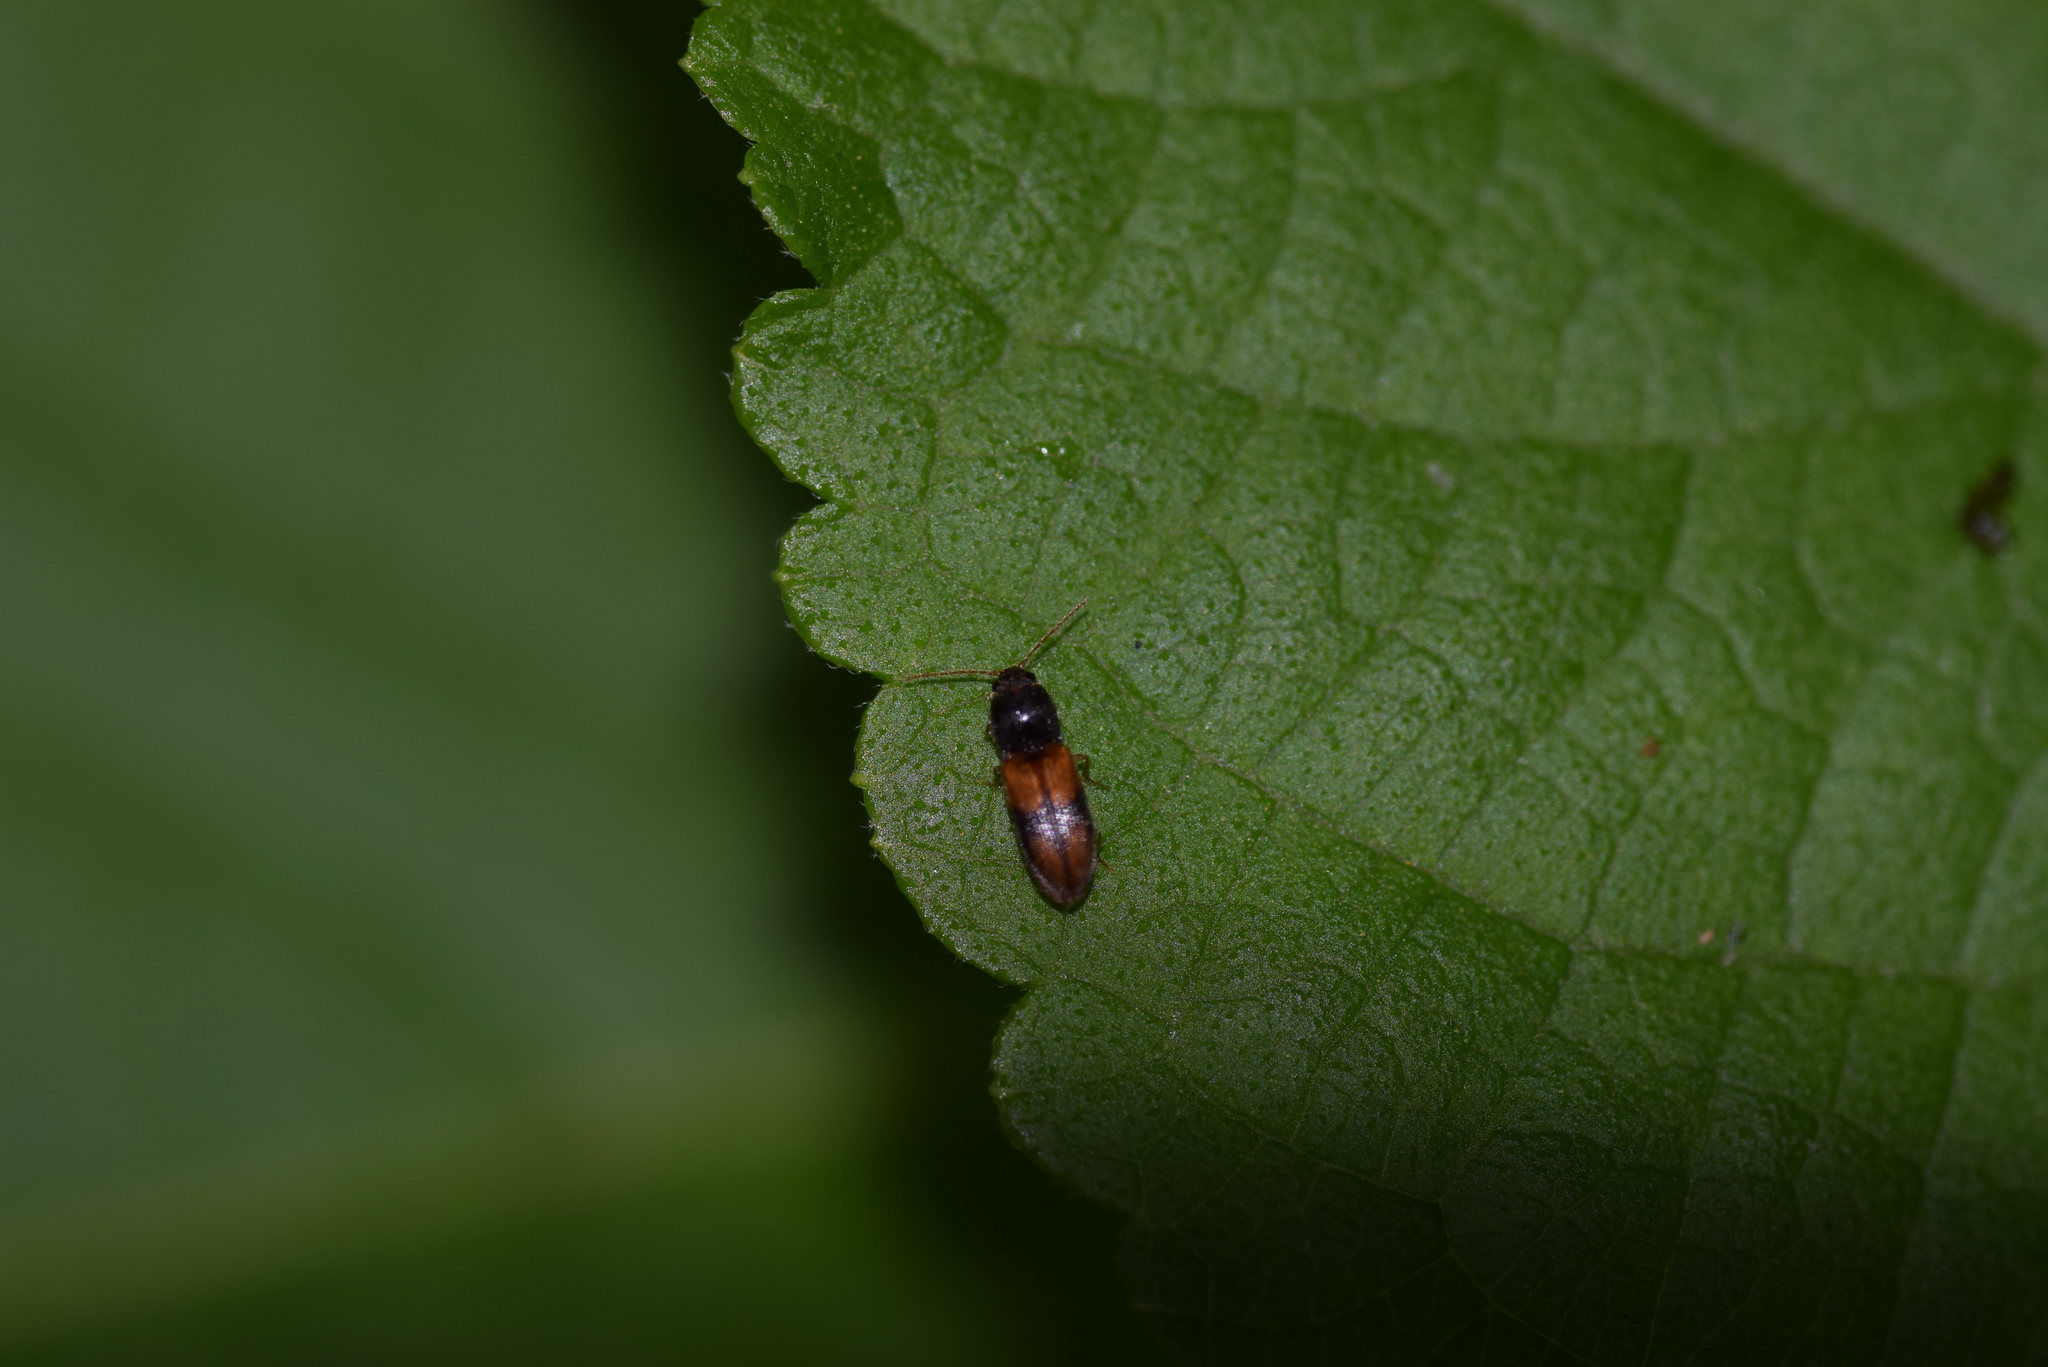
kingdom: Animalia
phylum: Arthropoda
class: Insecta
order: Coleoptera
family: Elateridae
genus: Horistonotus
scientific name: Horistonotus curiatus
